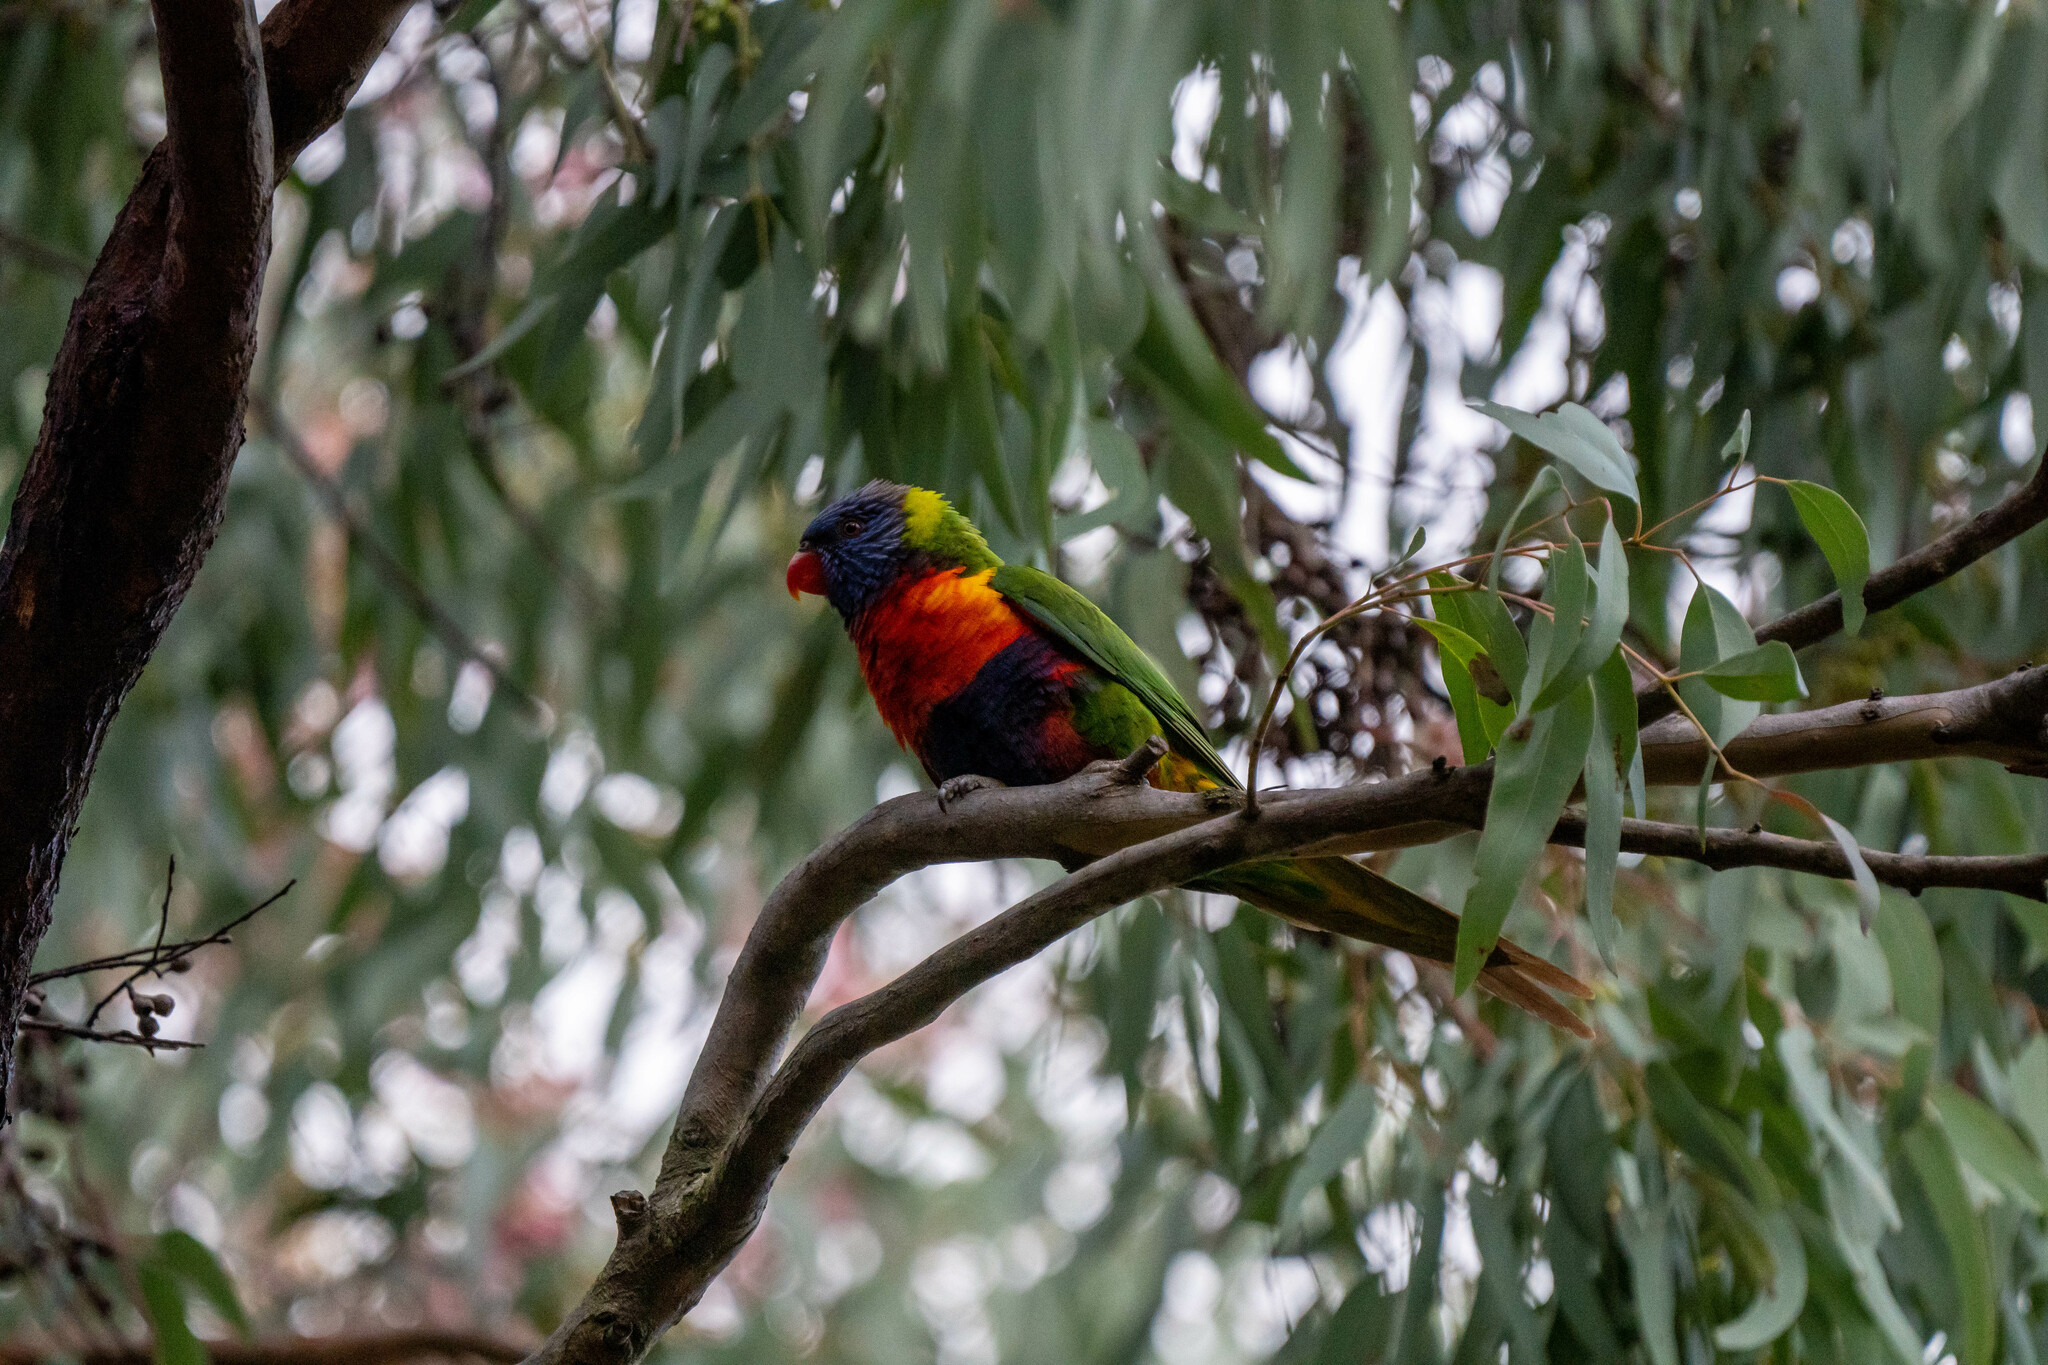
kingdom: Animalia
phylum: Chordata
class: Aves
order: Psittaciformes
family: Psittacidae
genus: Trichoglossus
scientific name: Trichoglossus haematodus
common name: Coconut lorikeet
